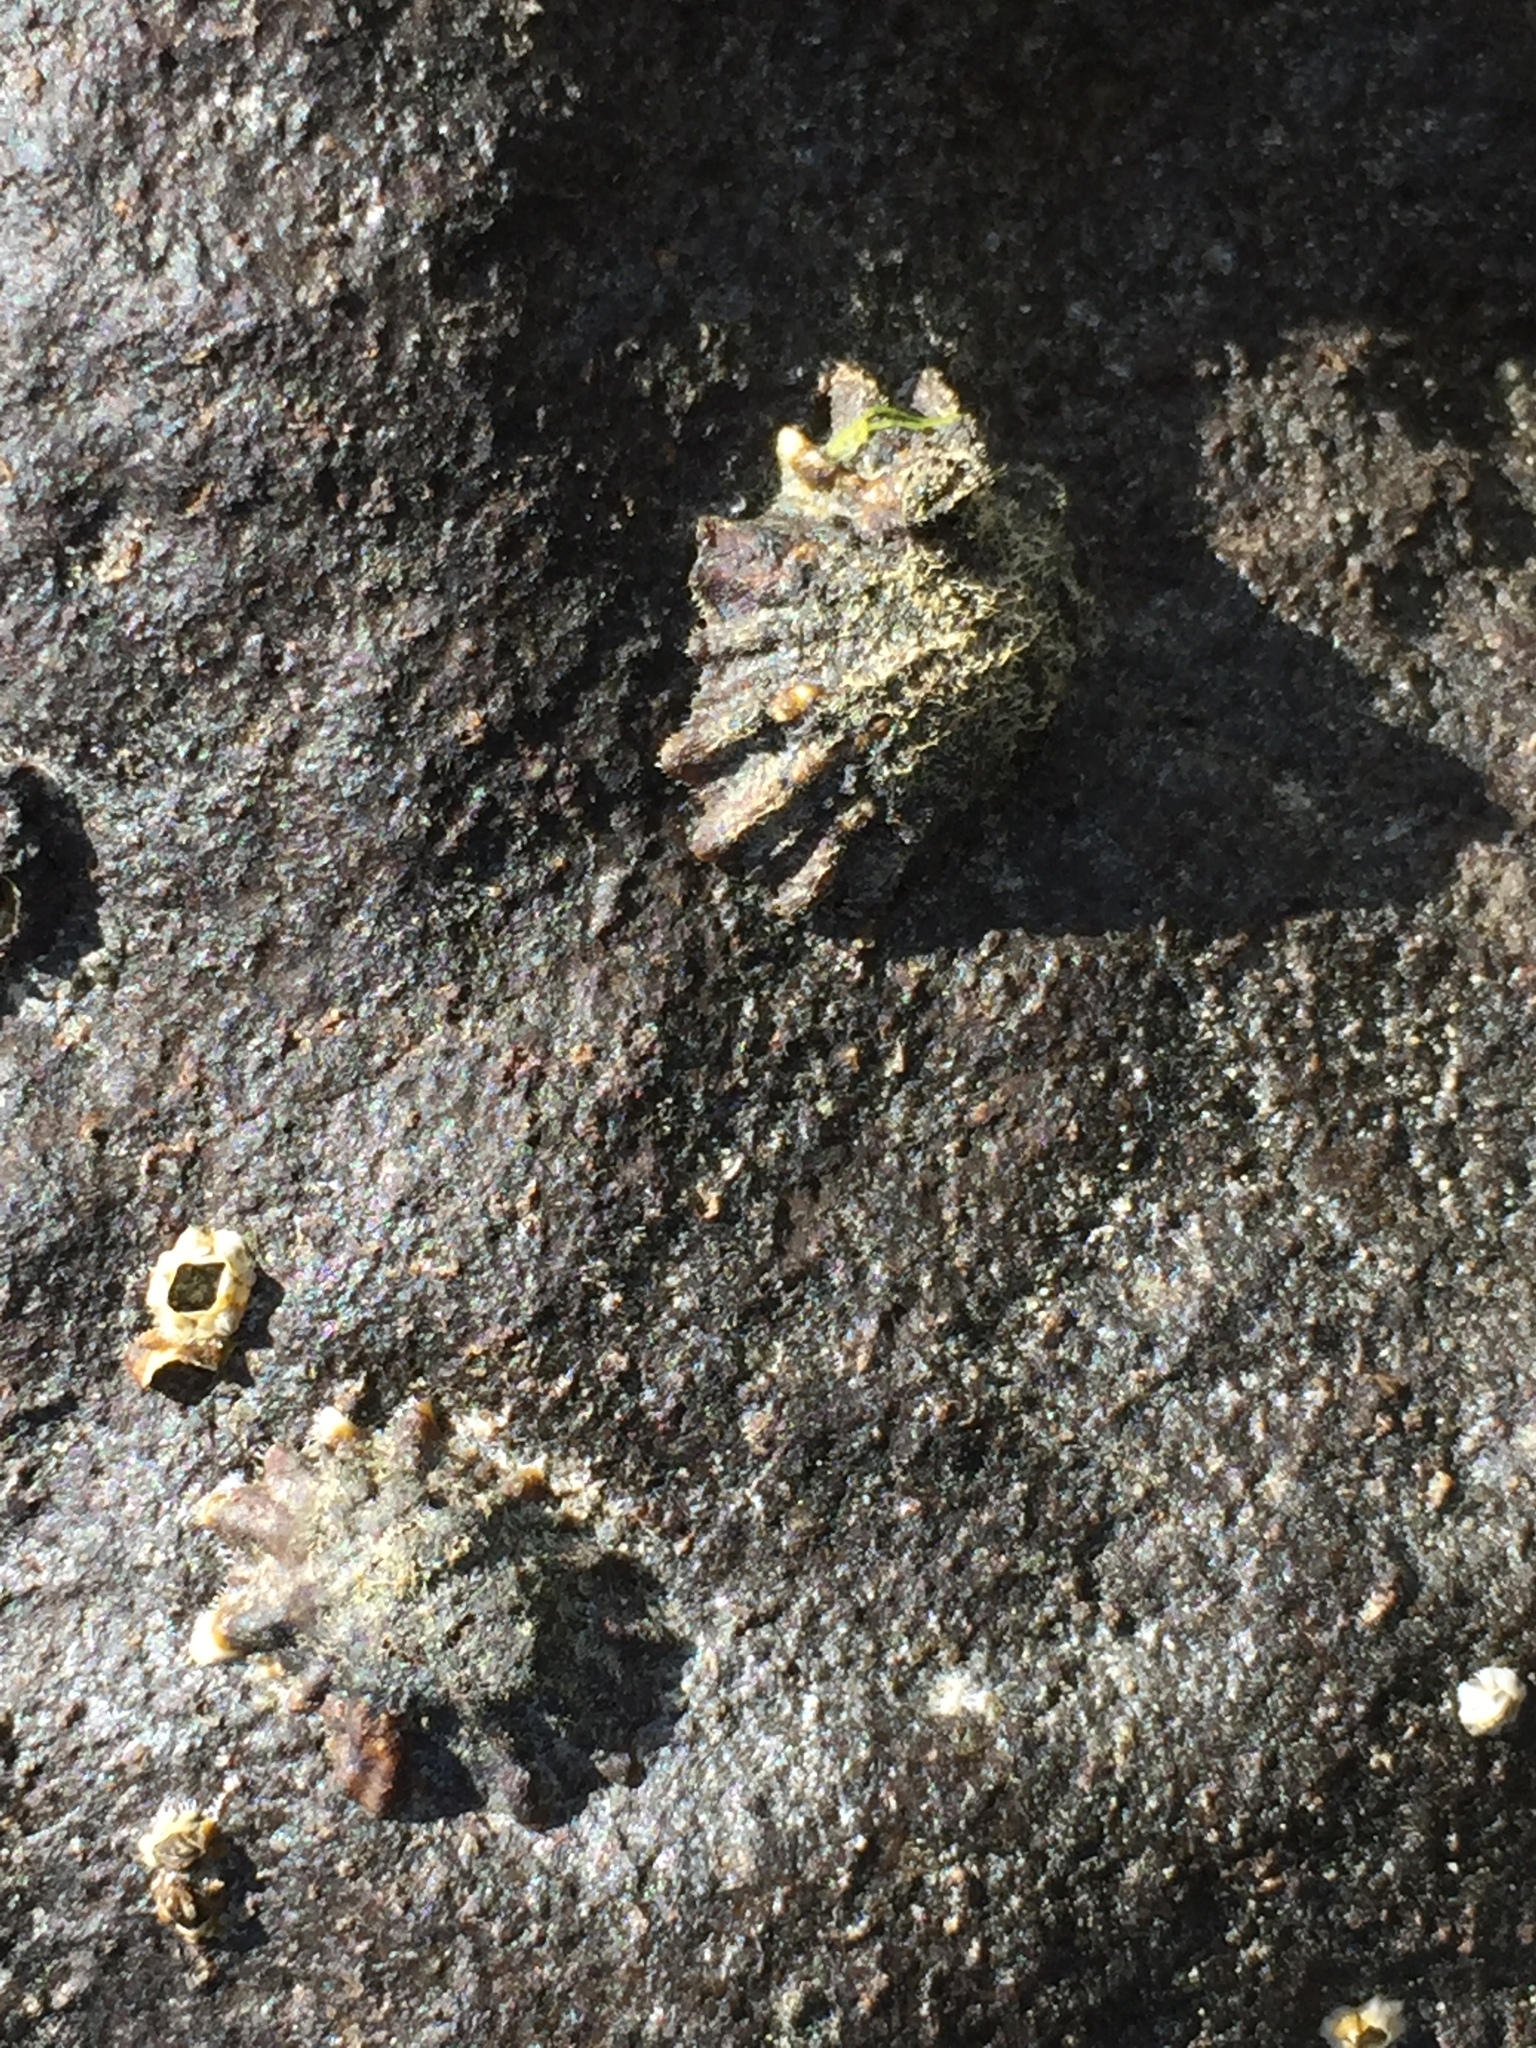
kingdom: Animalia
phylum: Mollusca
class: Gastropoda
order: Siphonariida
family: Siphonariidae
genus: Siphonaria
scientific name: Siphonaria australis
